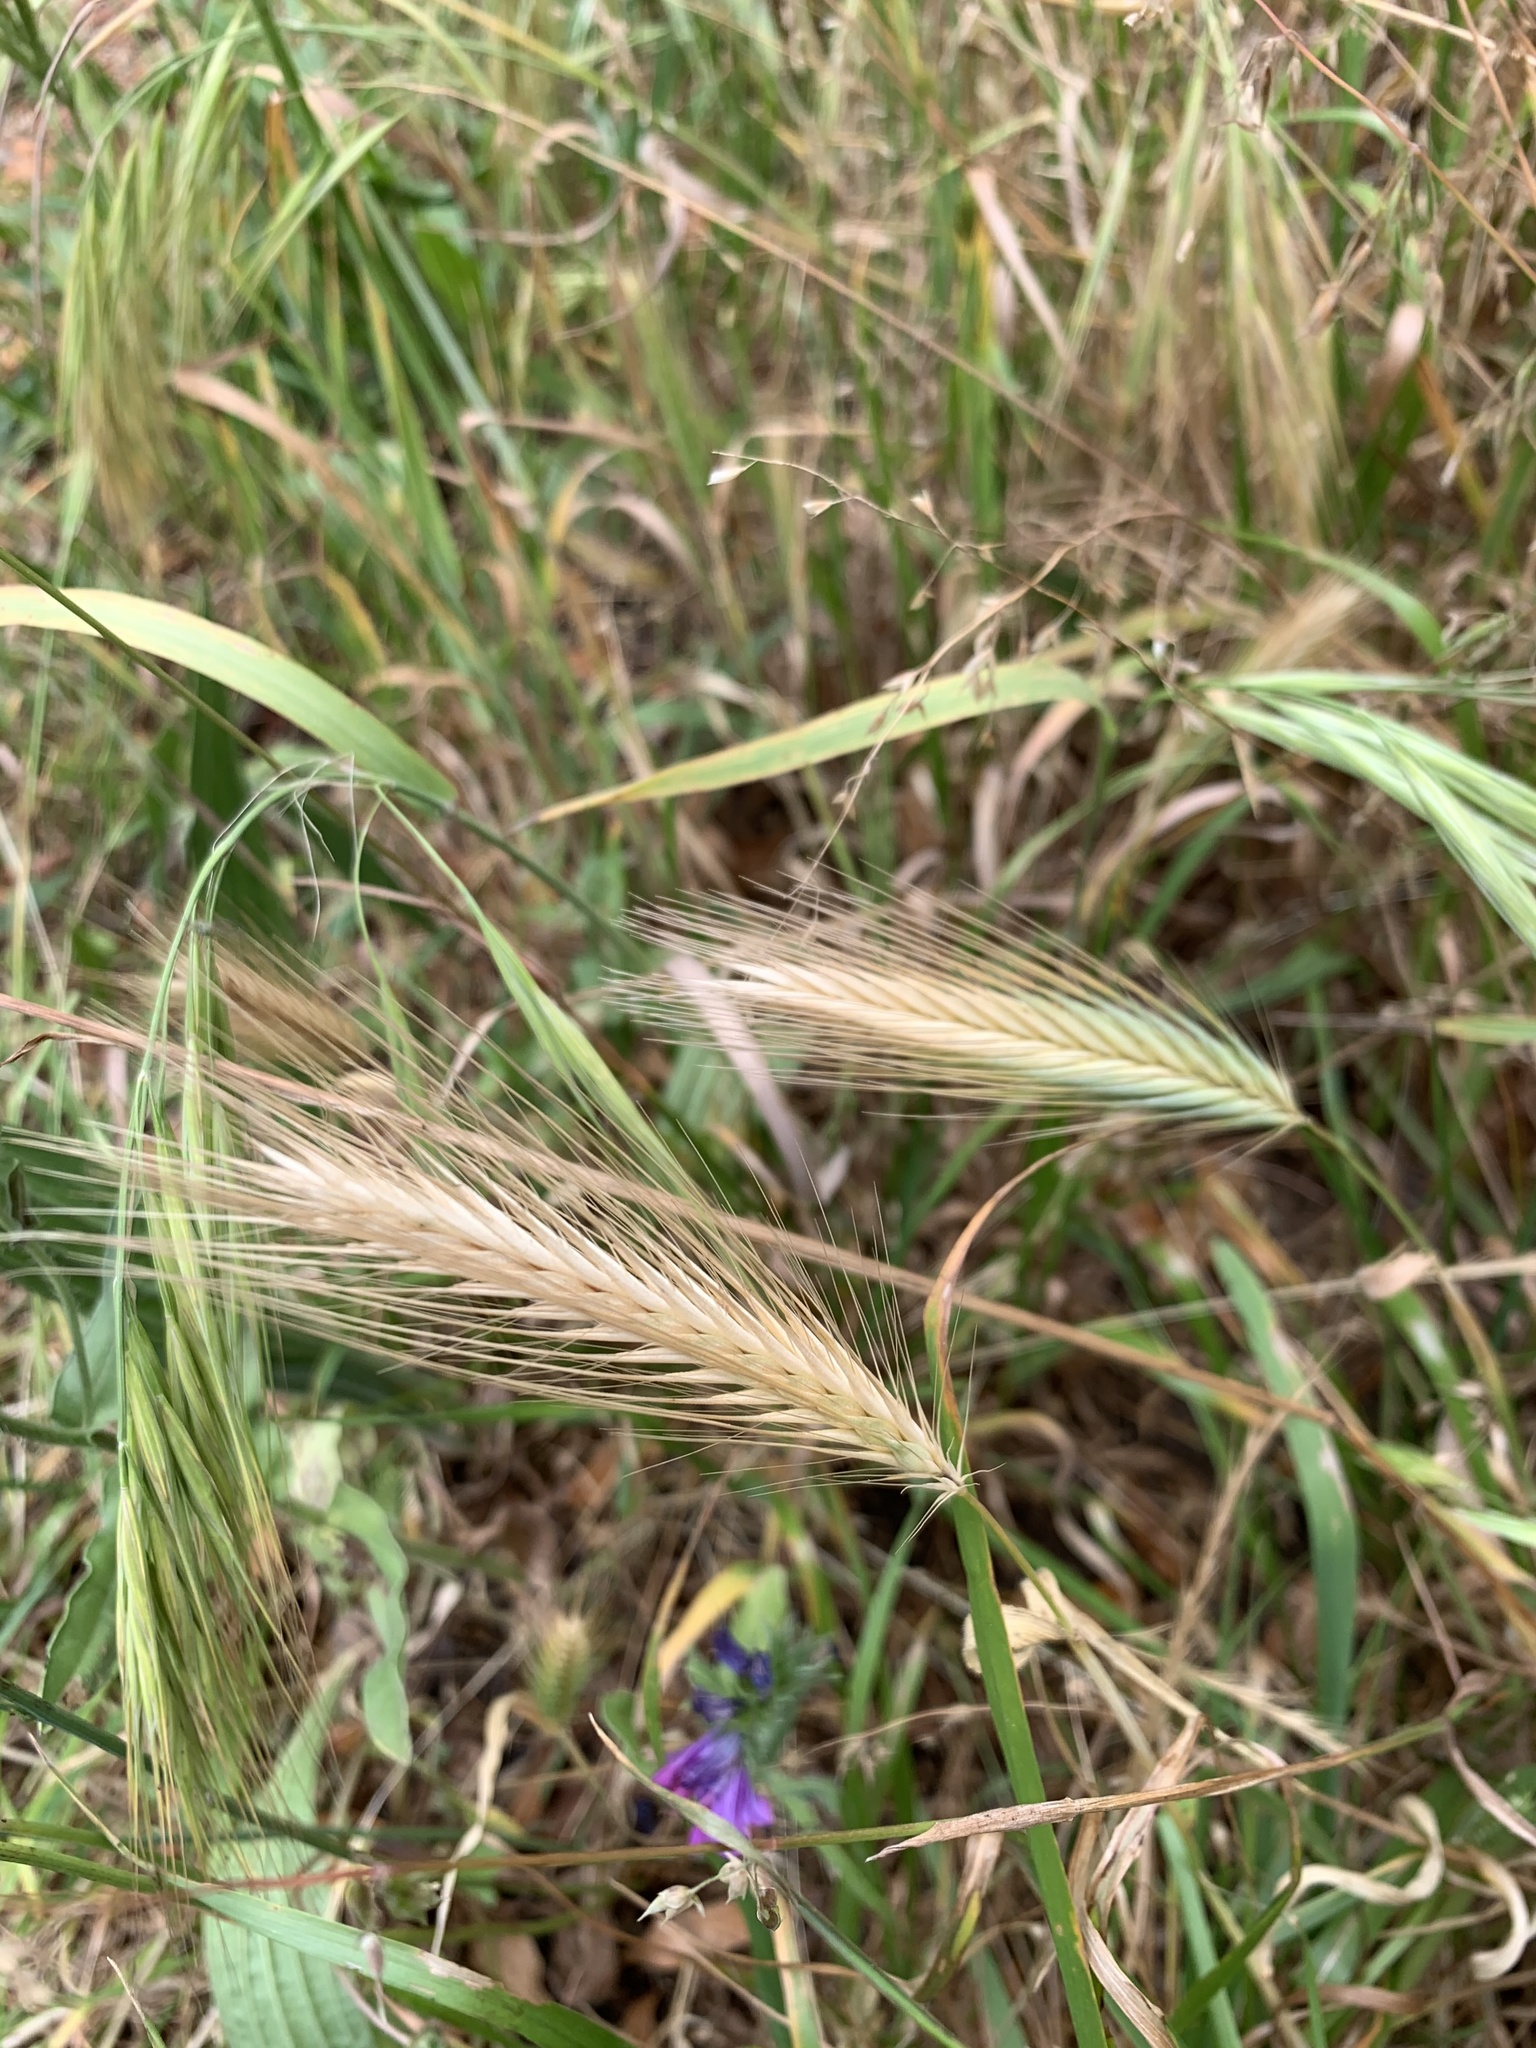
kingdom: Plantae
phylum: Tracheophyta
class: Liliopsida
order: Poales
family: Poaceae
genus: Hordeum
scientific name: Hordeum murinum
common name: Wall barley
